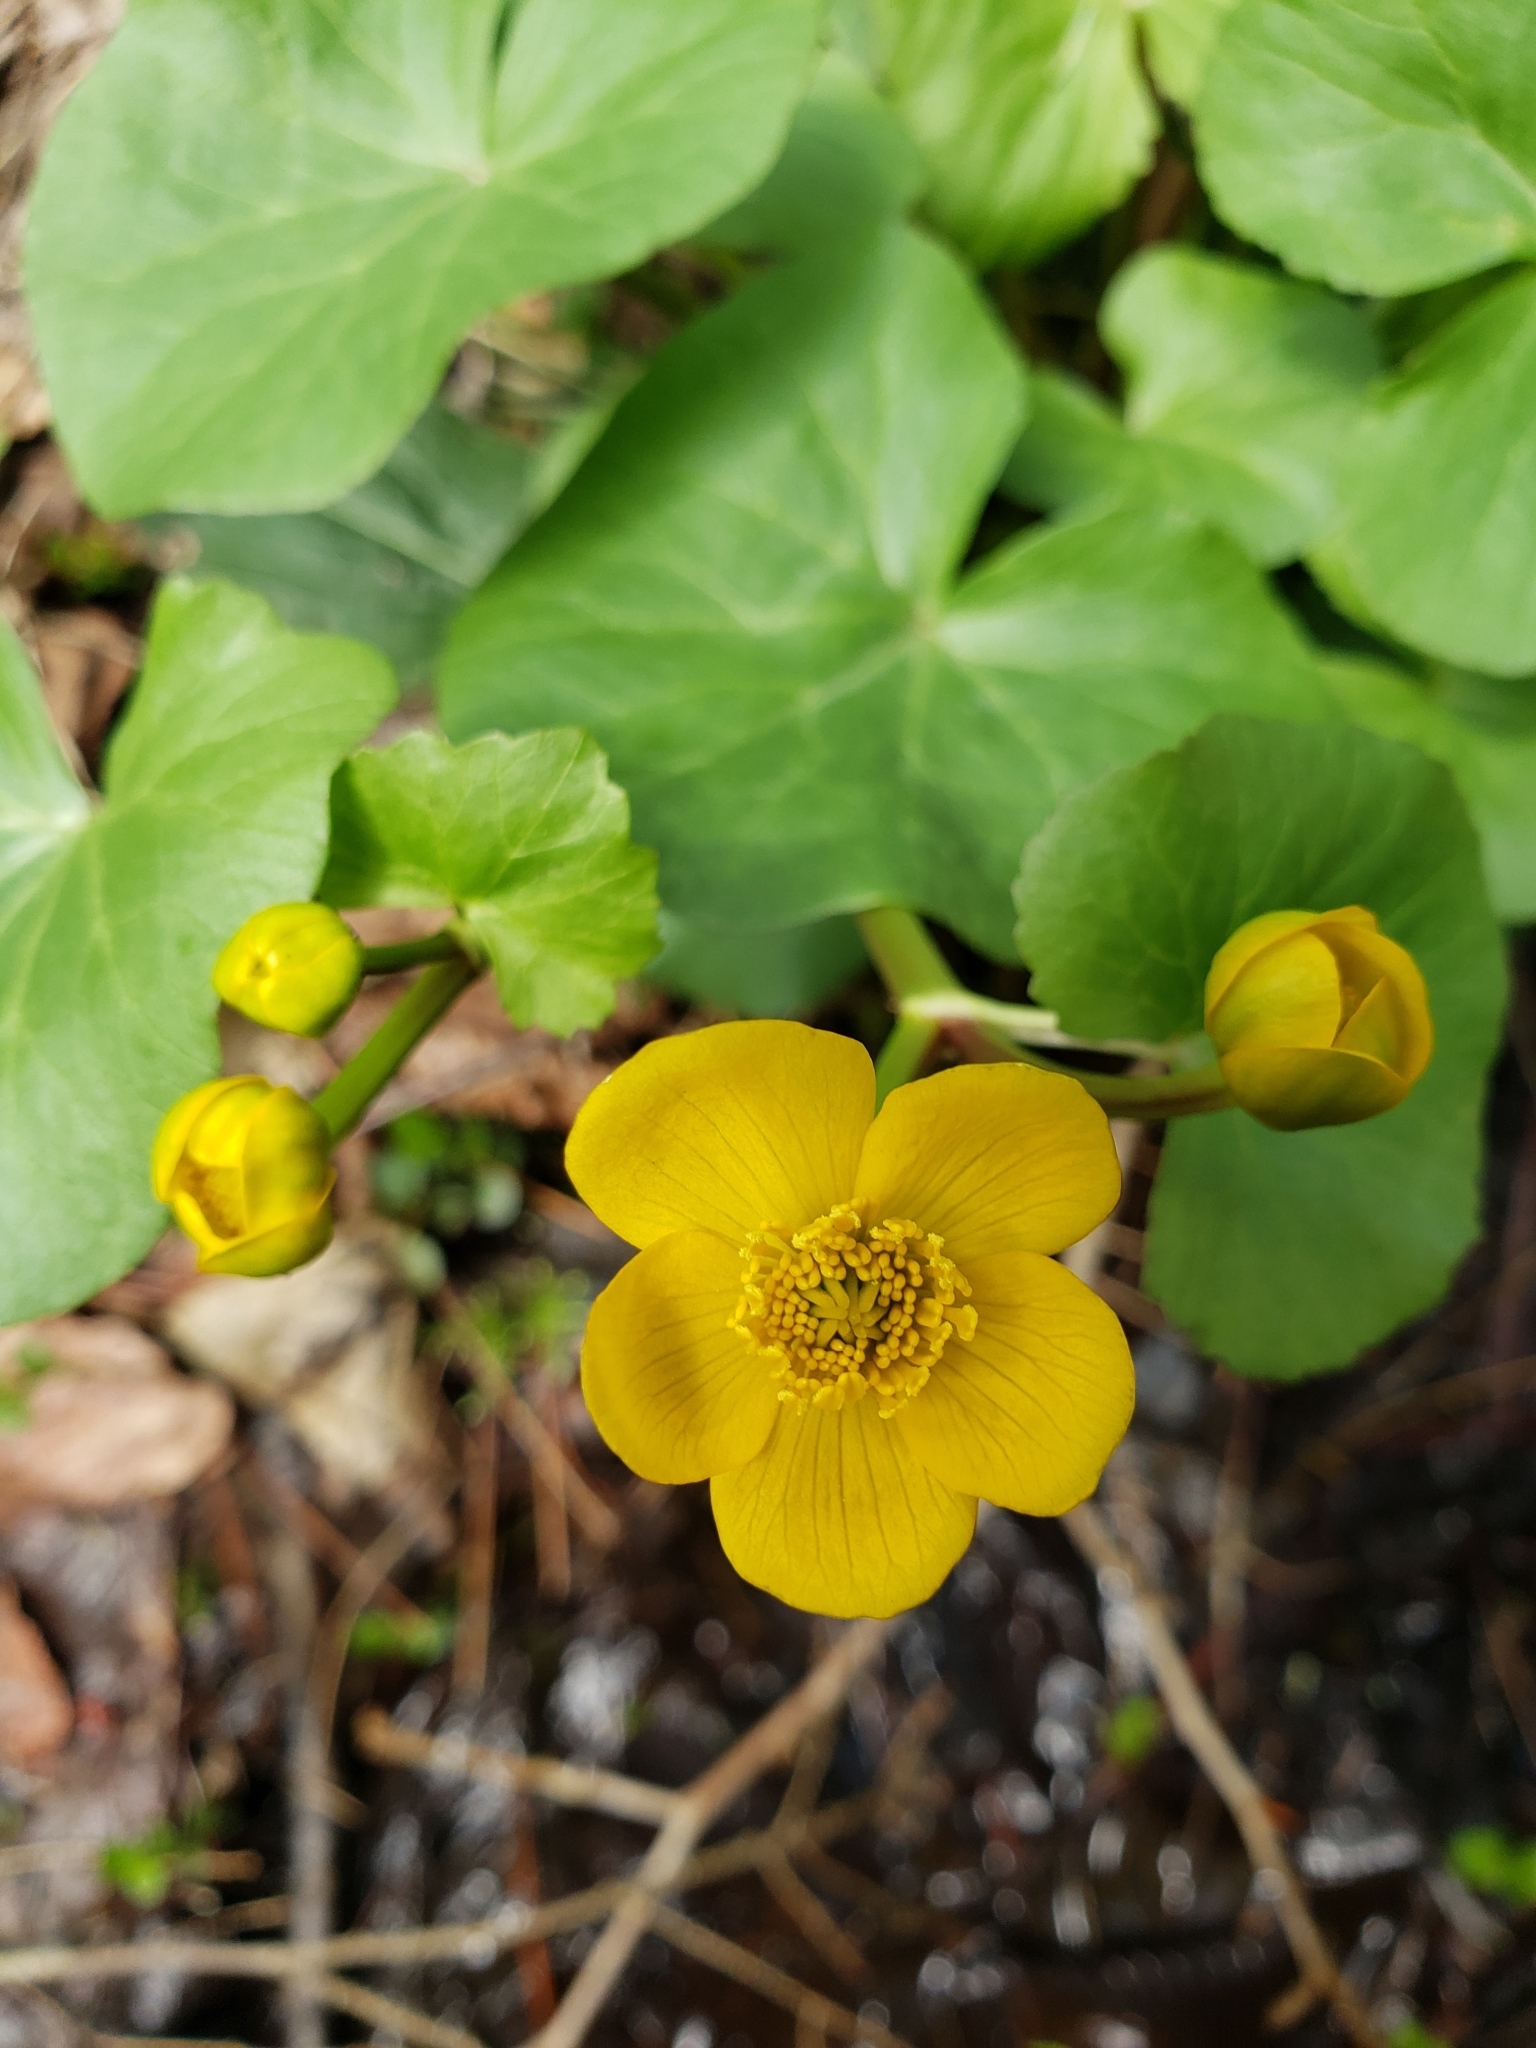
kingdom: Plantae
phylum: Tracheophyta
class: Magnoliopsida
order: Ranunculales
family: Ranunculaceae
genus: Caltha
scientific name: Caltha palustris
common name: Marsh marigold
